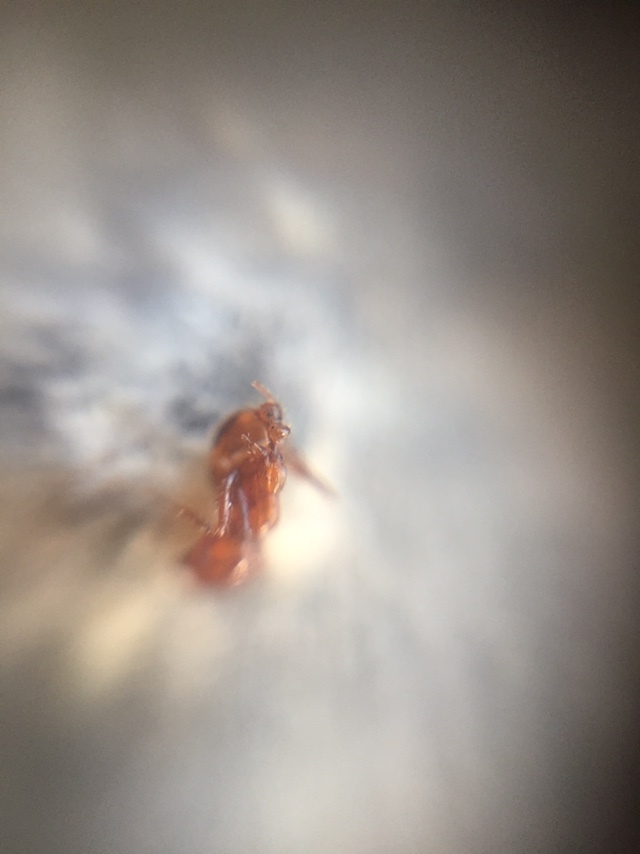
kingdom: Animalia
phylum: Arthropoda
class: Insecta
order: Hymenoptera
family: Formicidae
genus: Solenopsis
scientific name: Solenopsis geminata
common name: Tropical fire ant
